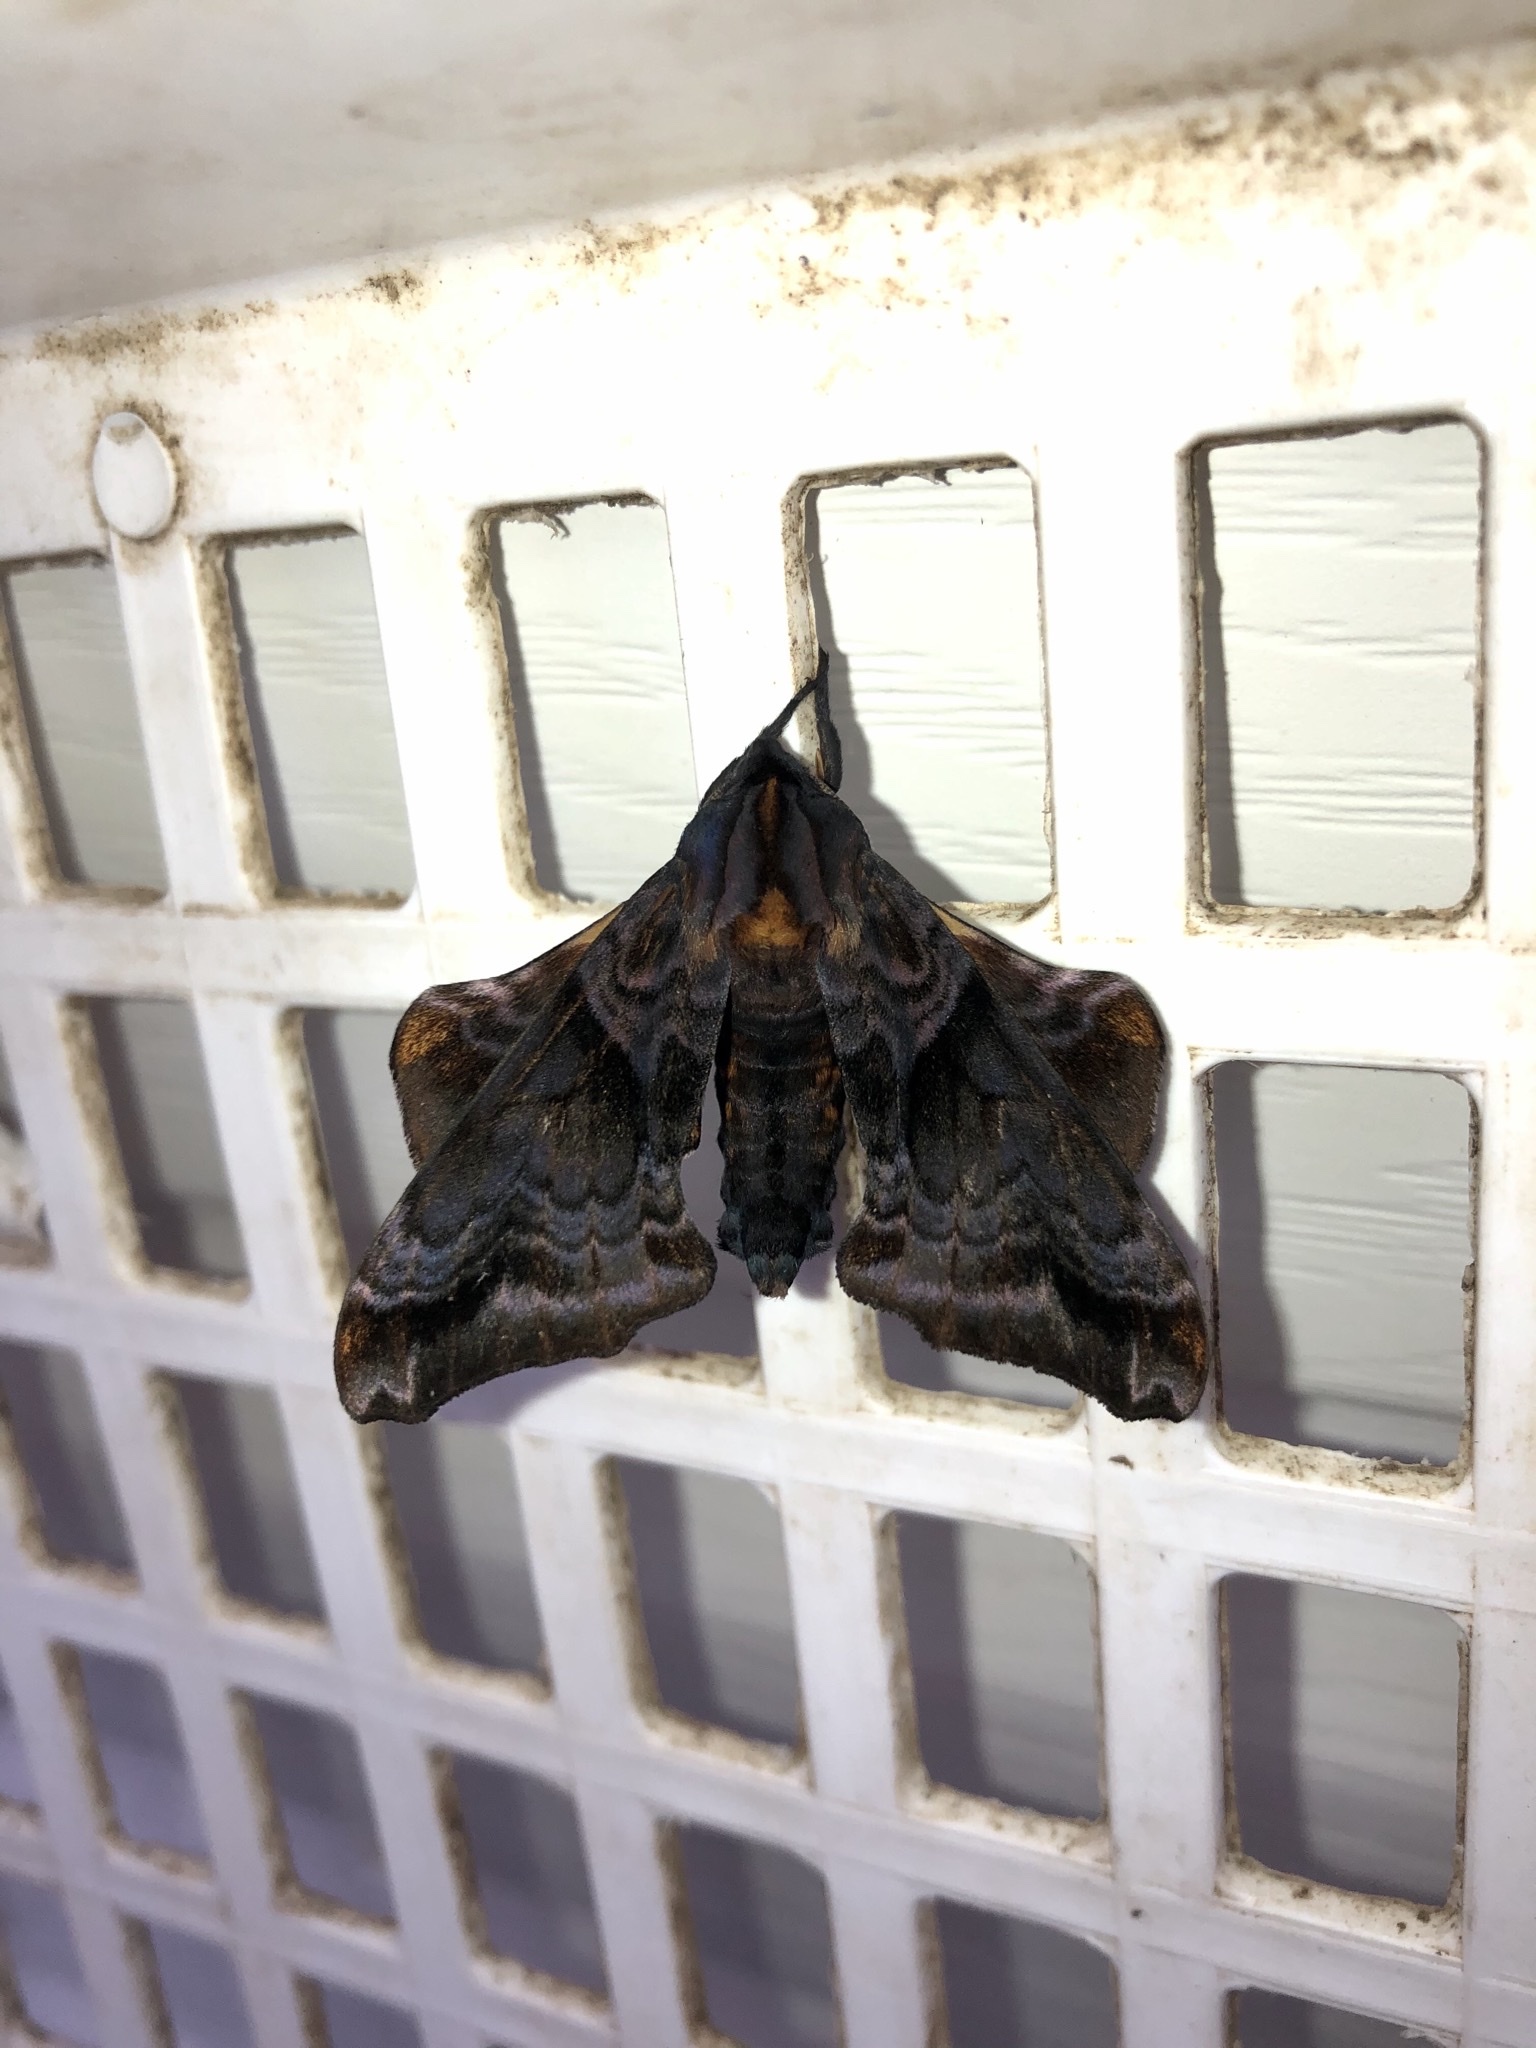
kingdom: Animalia
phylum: Arthropoda
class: Insecta
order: Lepidoptera
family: Sphingidae
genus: Paonias
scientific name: Paonias myops
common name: Small-eyed sphinx
